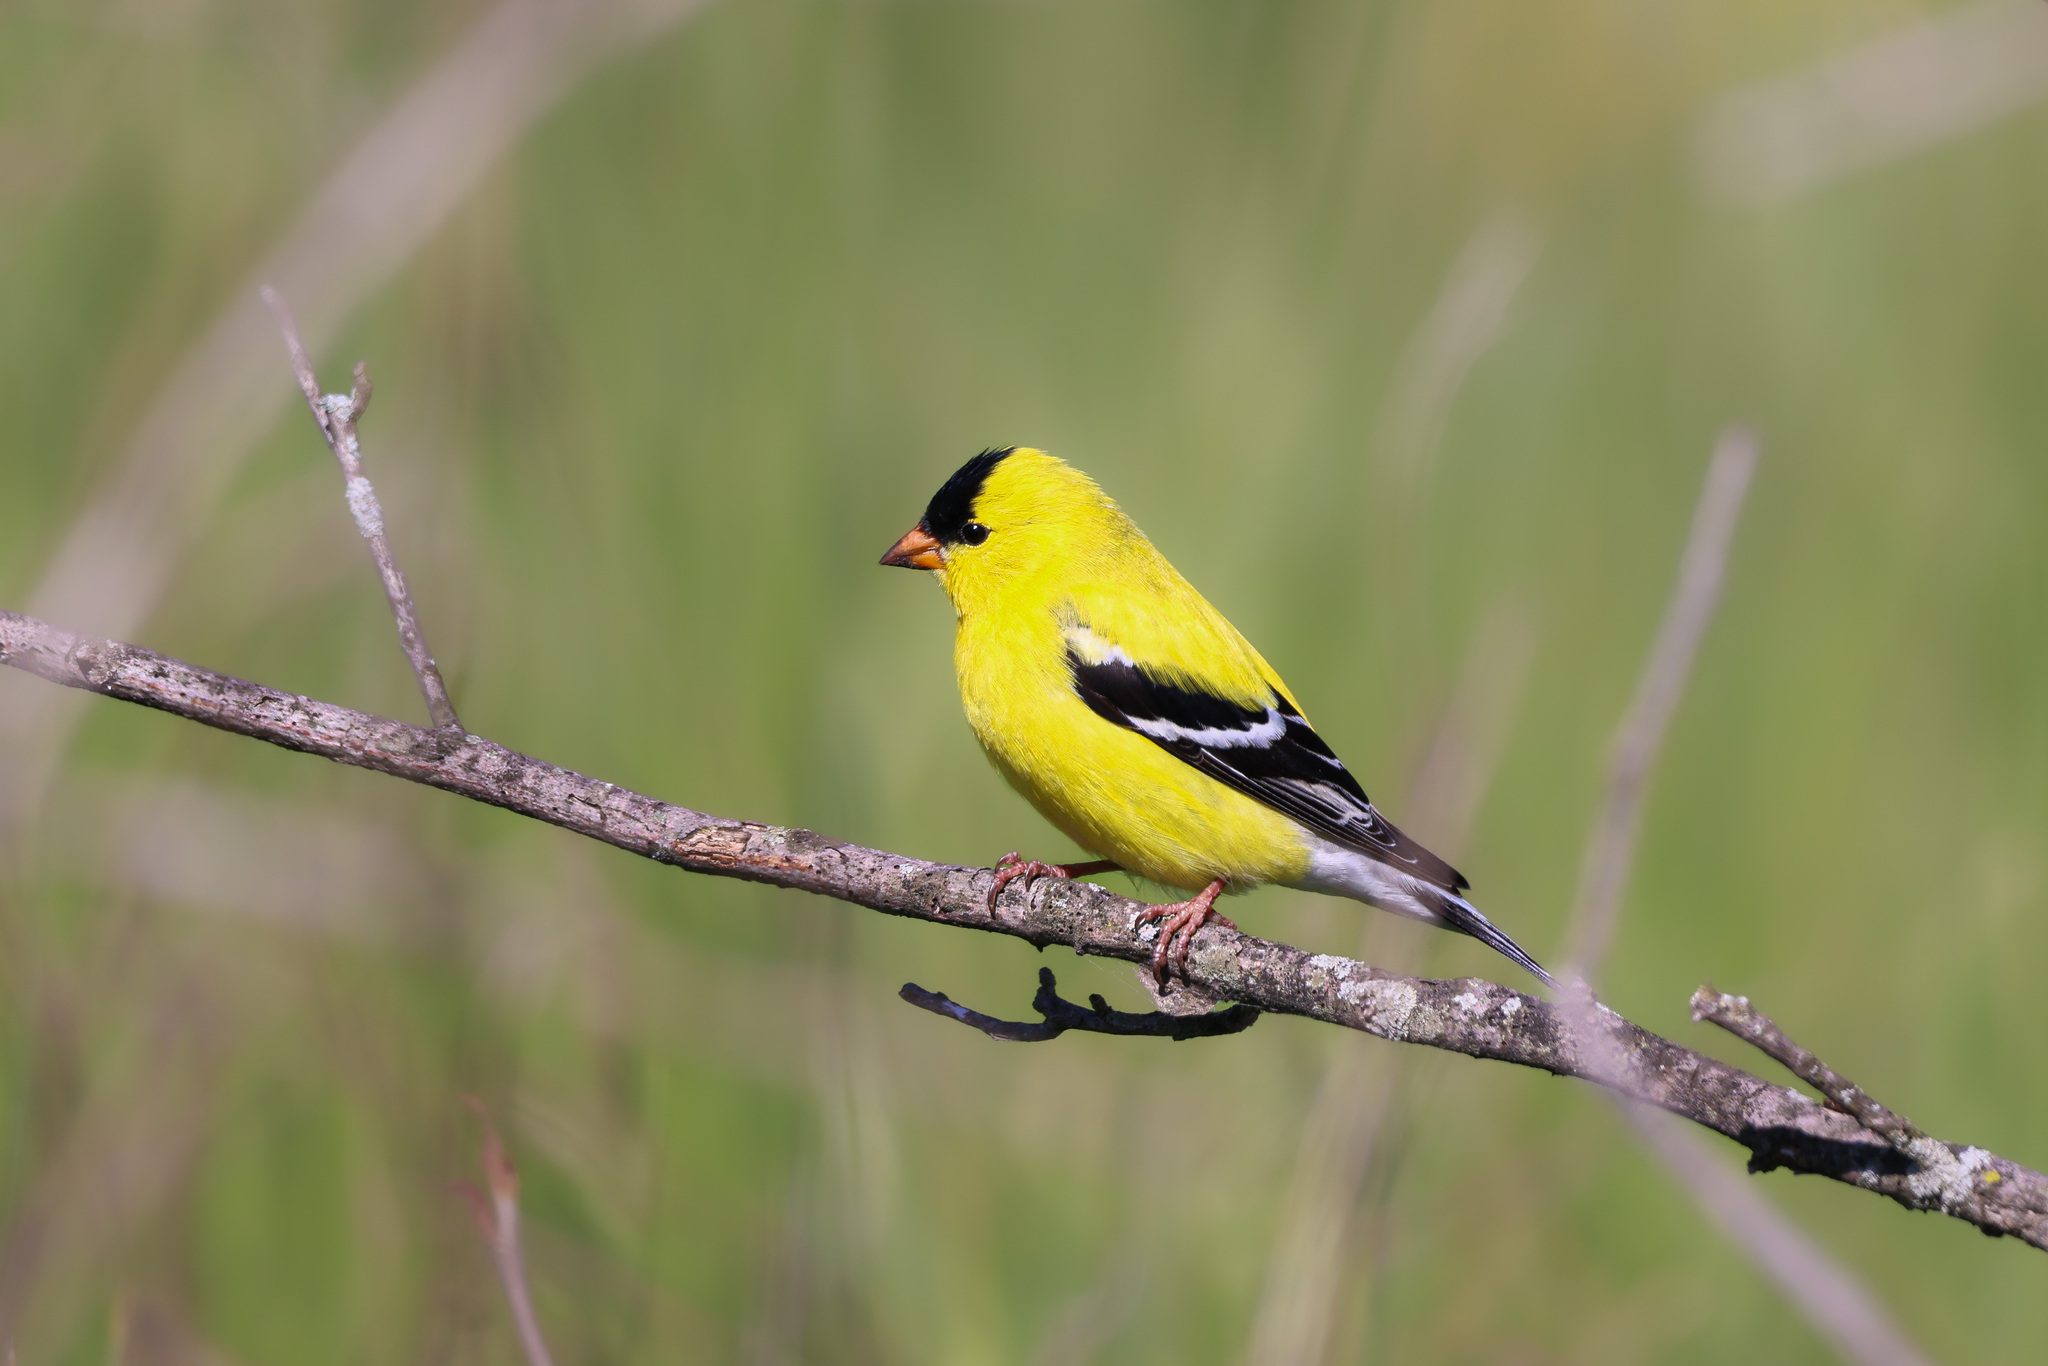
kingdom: Animalia
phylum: Chordata
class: Aves
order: Passeriformes
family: Fringillidae
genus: Spinus
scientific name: Spinus tristis
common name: American goldfinch
